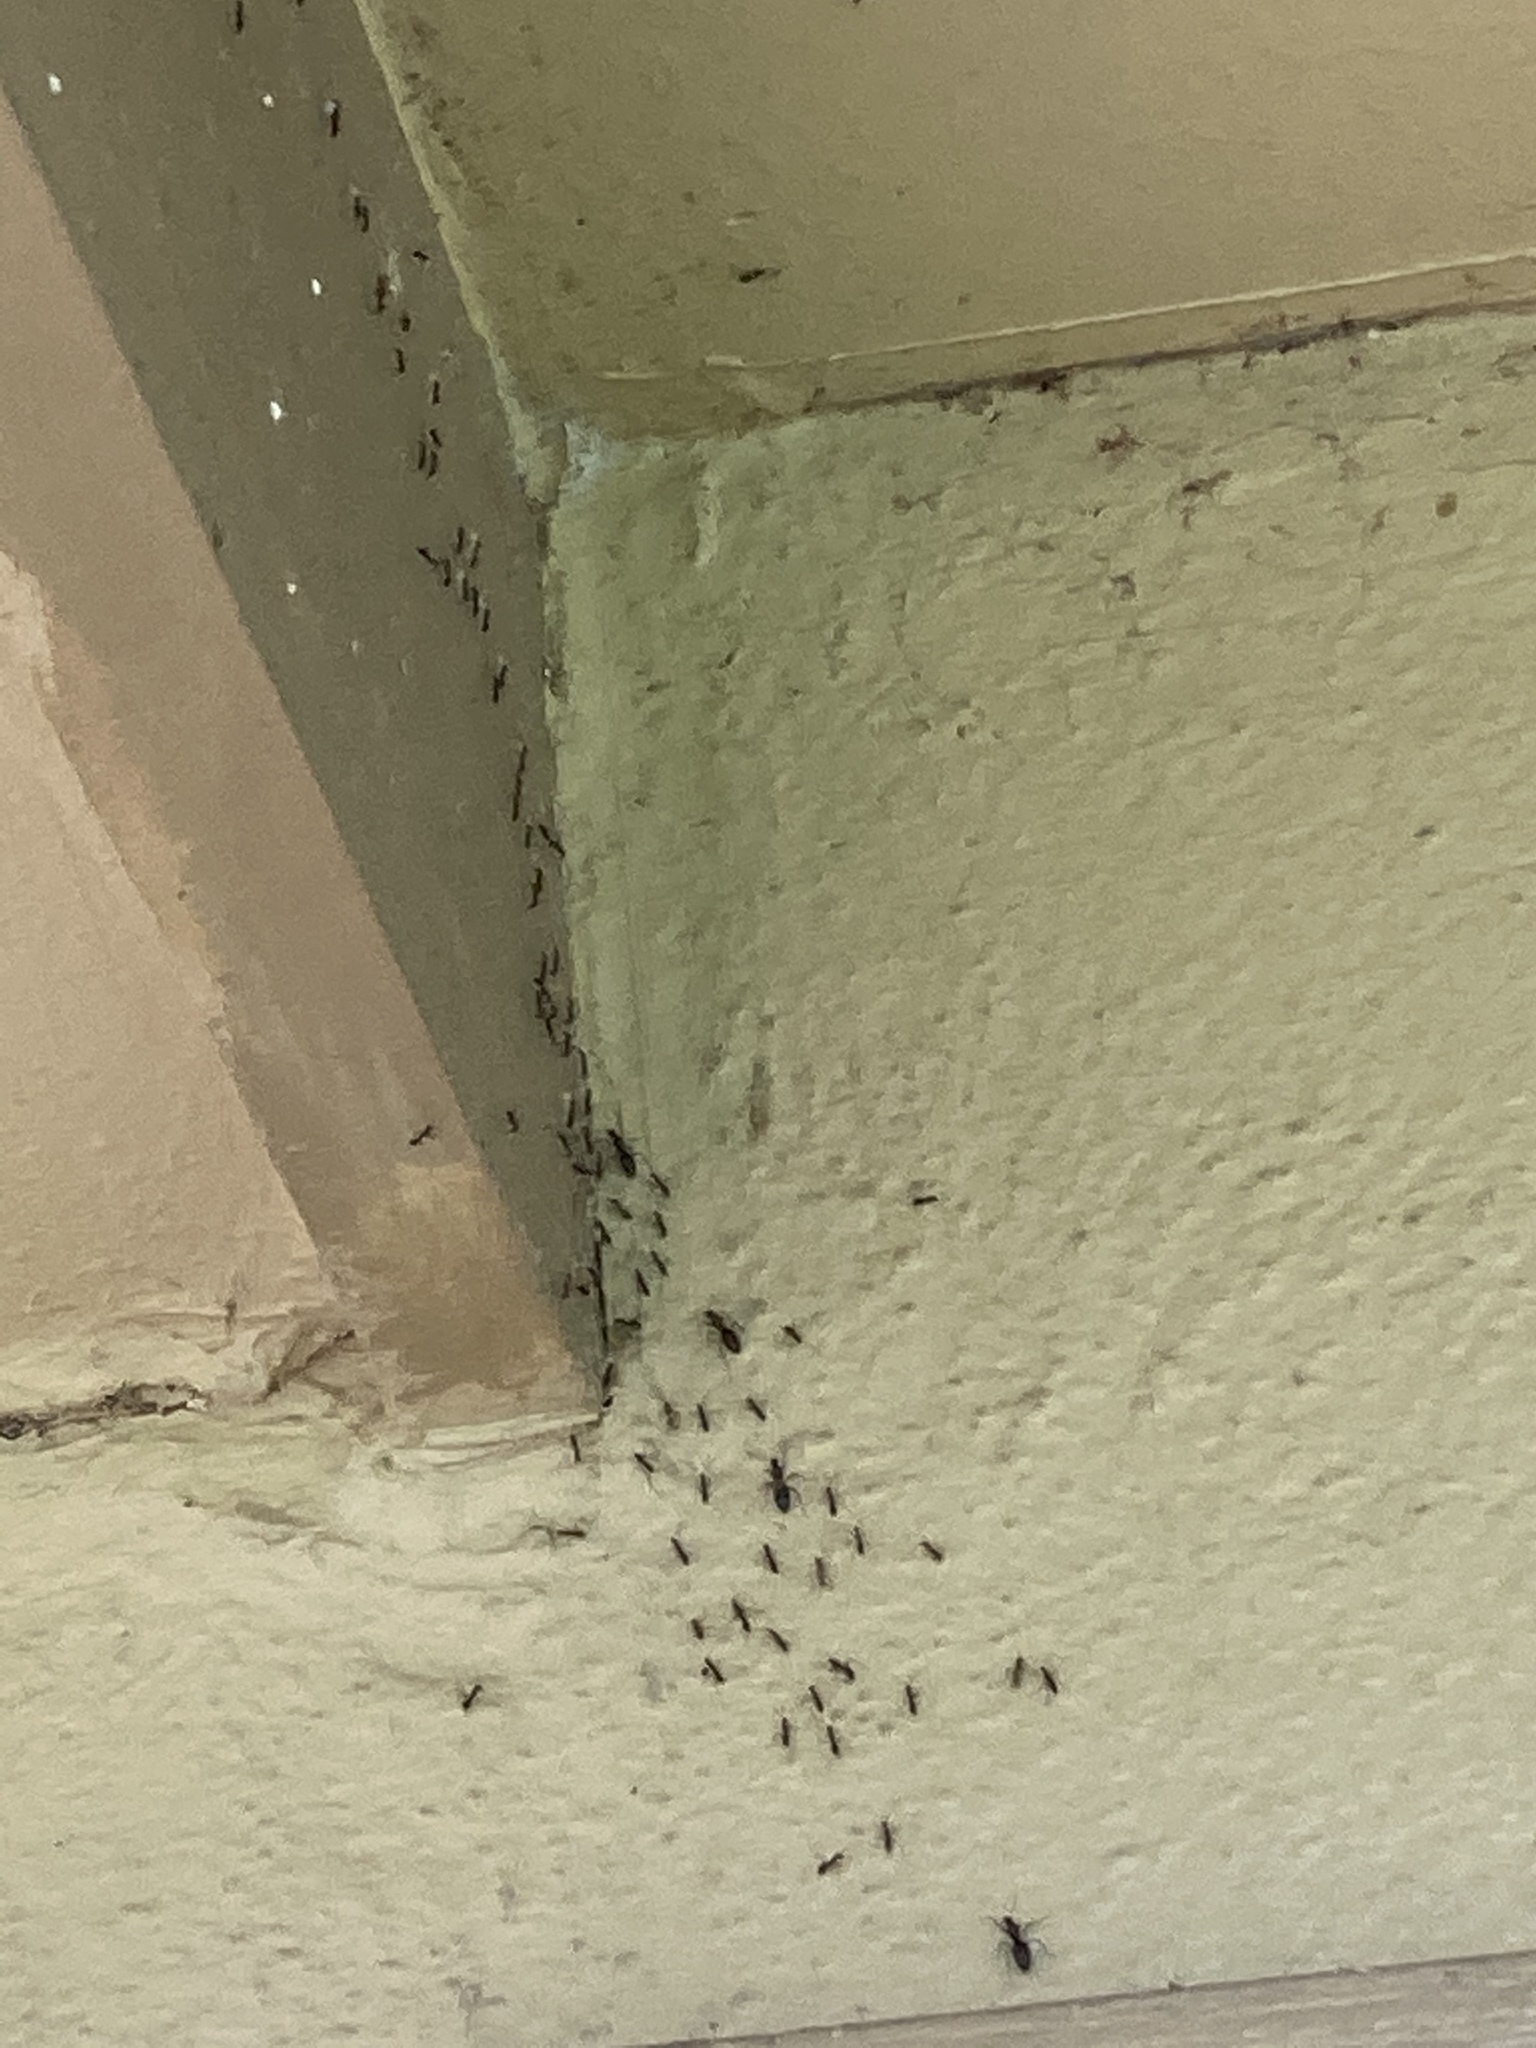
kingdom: Animalia
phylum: Arthropoda
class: Insecta
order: Hymenoptera
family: Formicidae
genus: Paratrechina
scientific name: Paratrechina longicornis
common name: Longhorned crazy ant
